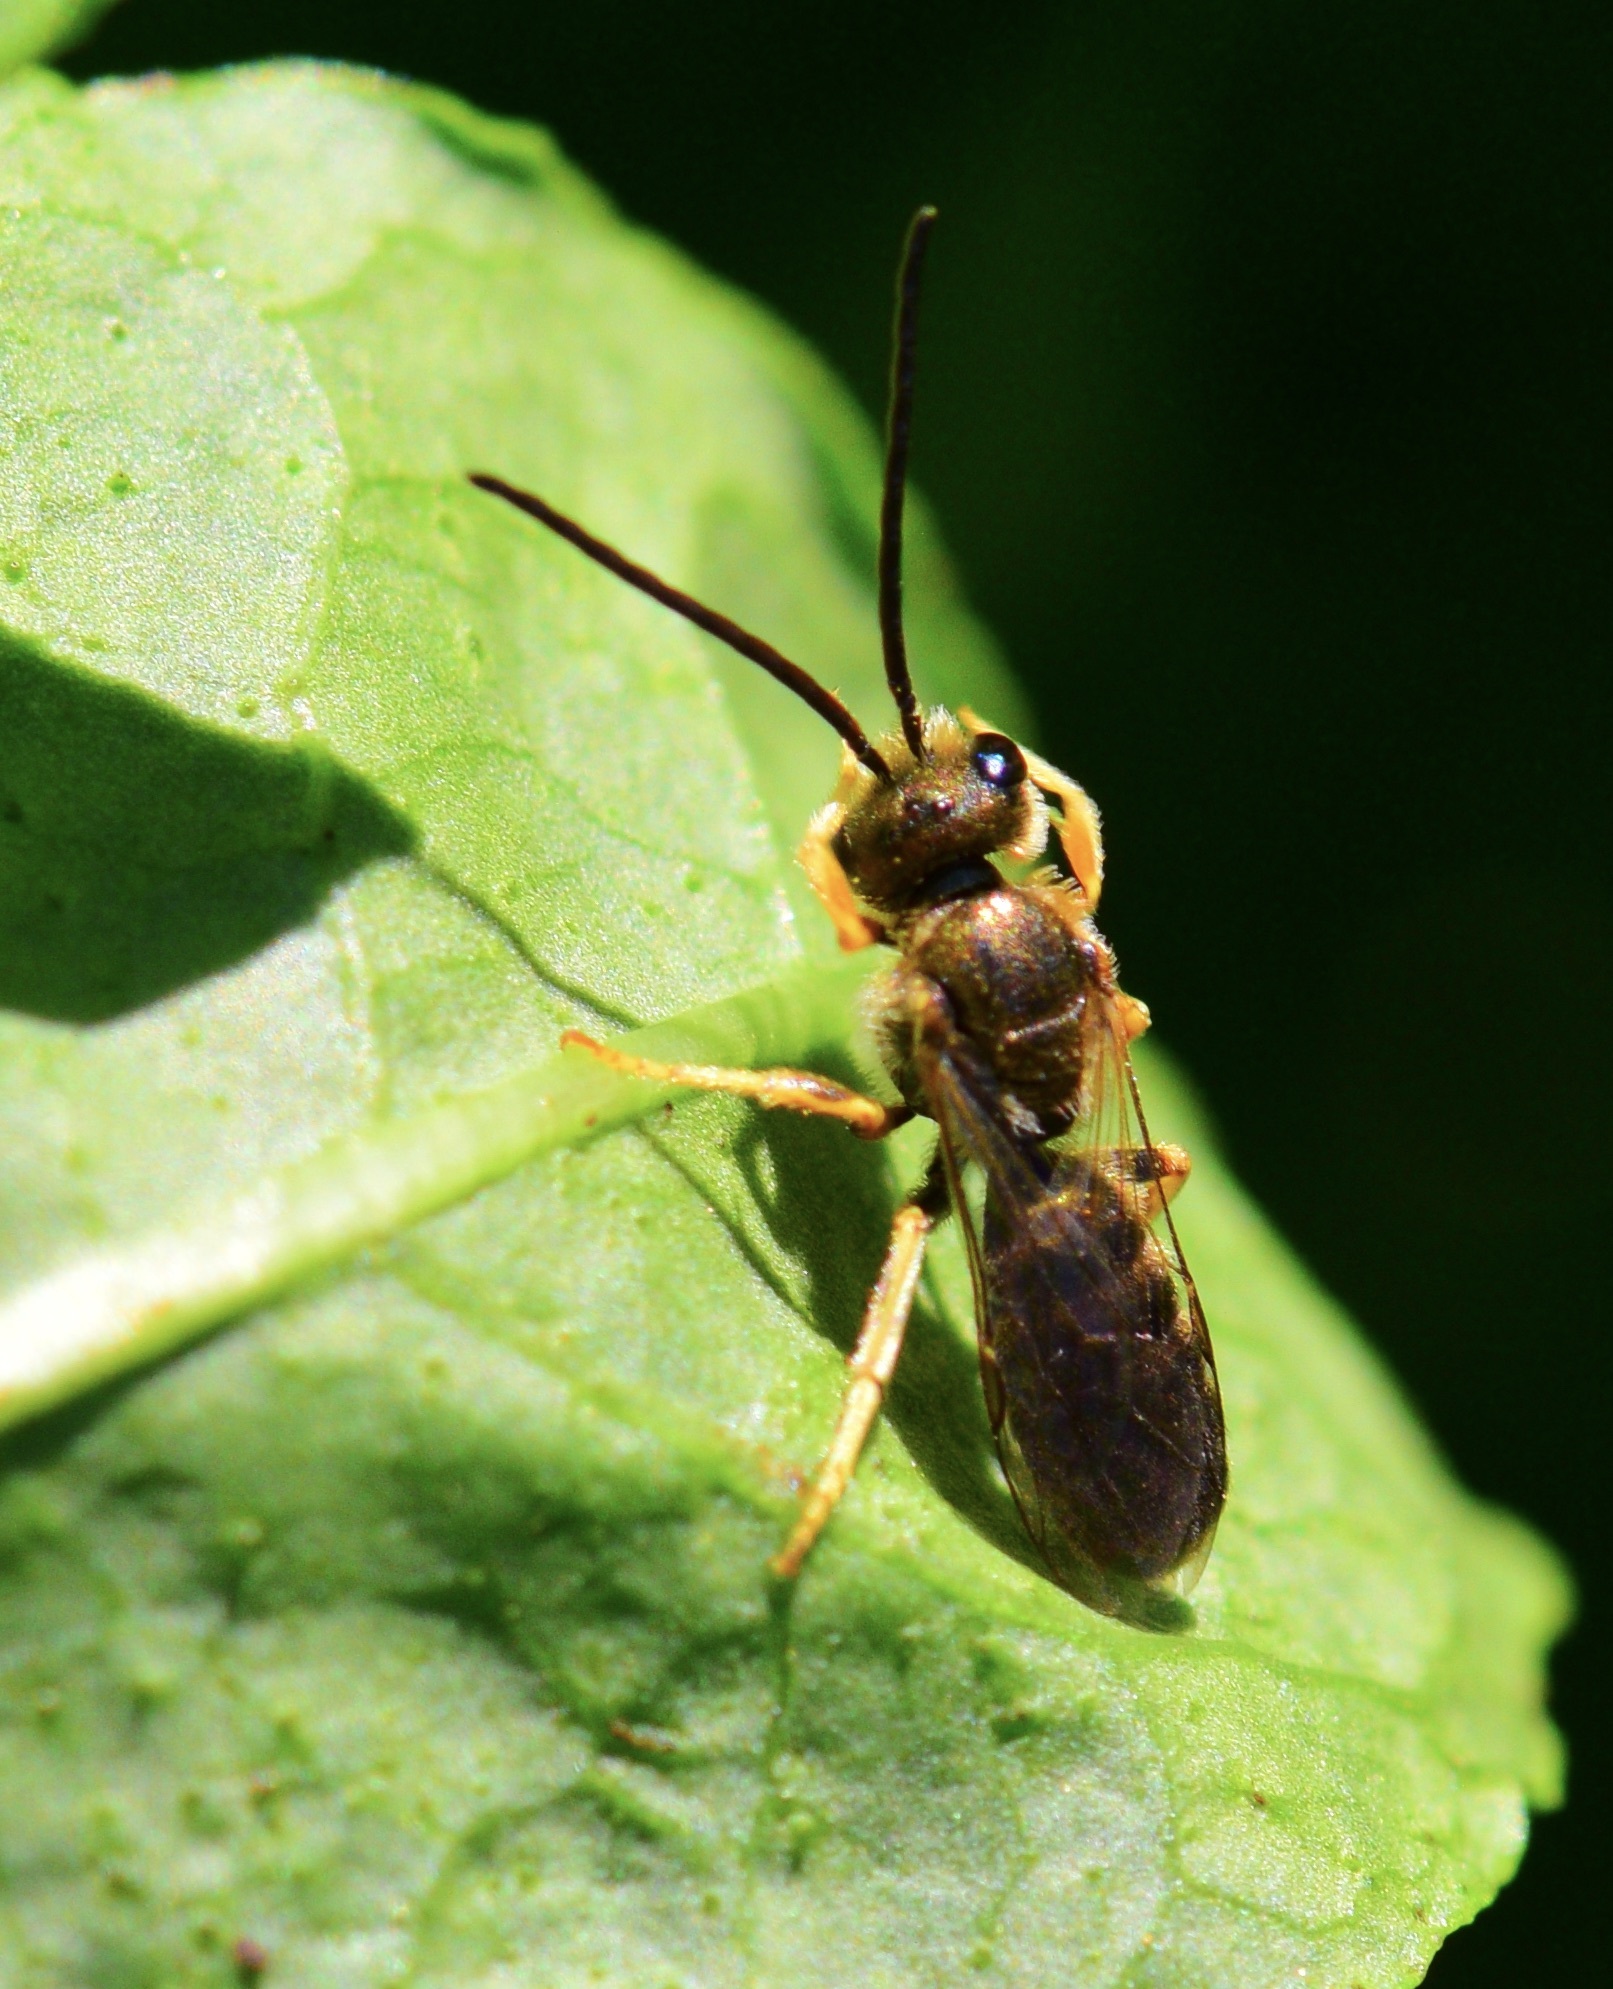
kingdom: Animalia
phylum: Arthropoda
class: Insecta
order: Hymenoptera
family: Halictidae
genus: Halictus
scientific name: Halictus confusus
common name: Southern bronze furrow bee
